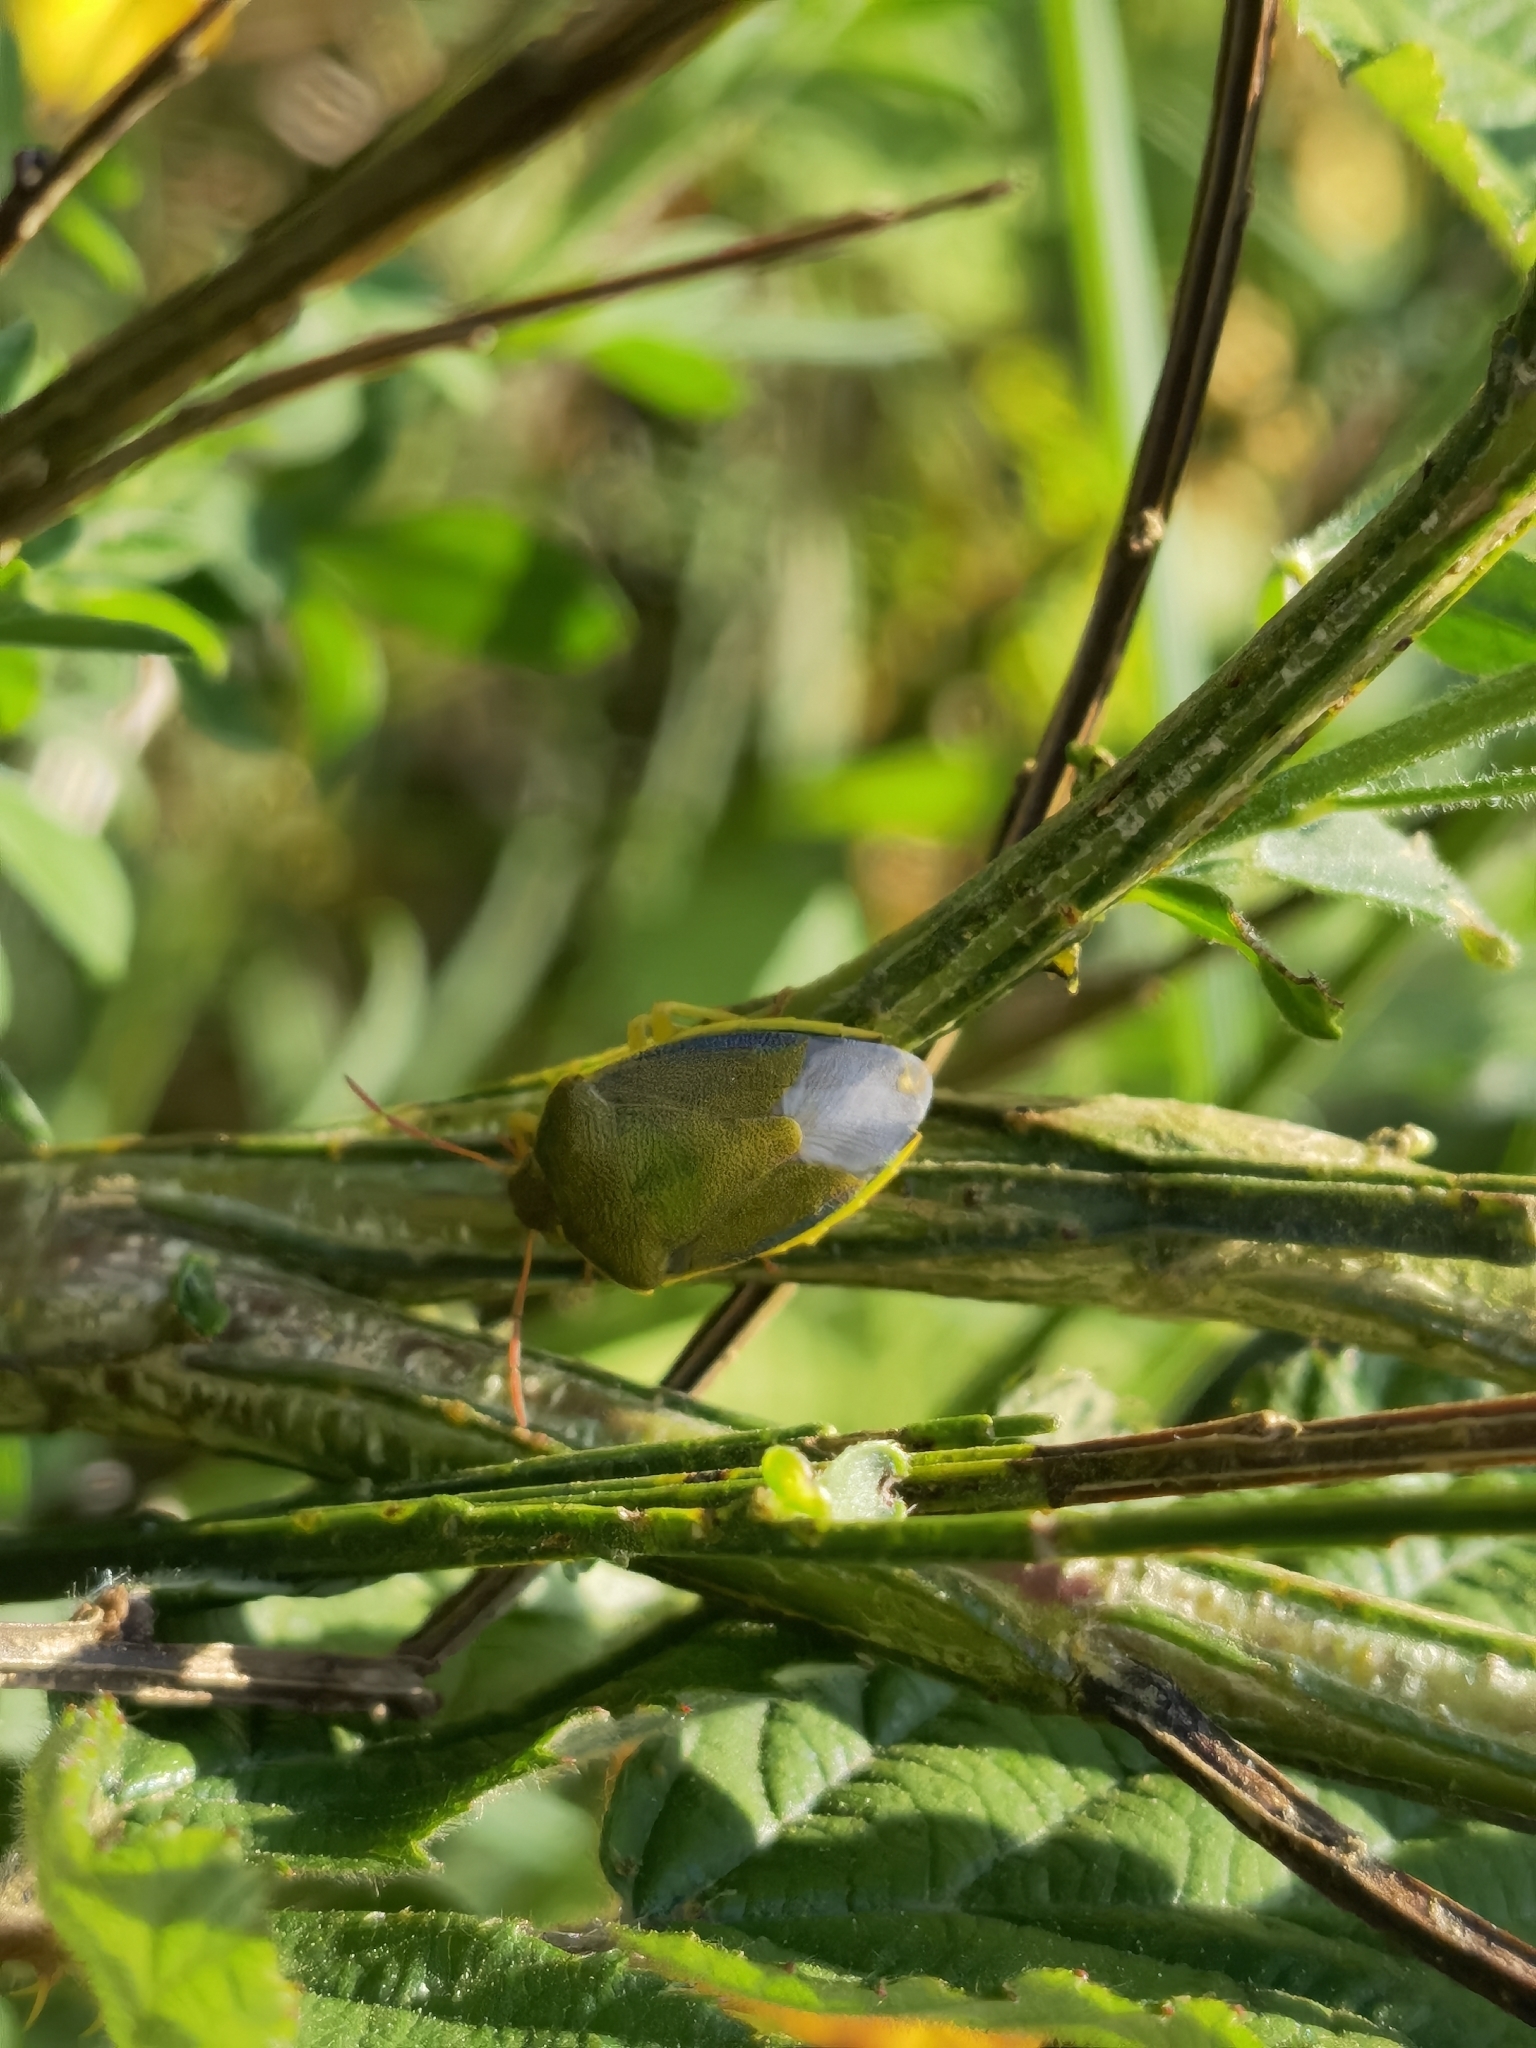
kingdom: Animalia
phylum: Arthropoda
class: Insecta
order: Hemiptera
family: Pentatomidae
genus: Piezodorus
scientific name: Piezodorus lituratus
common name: Stink bug
